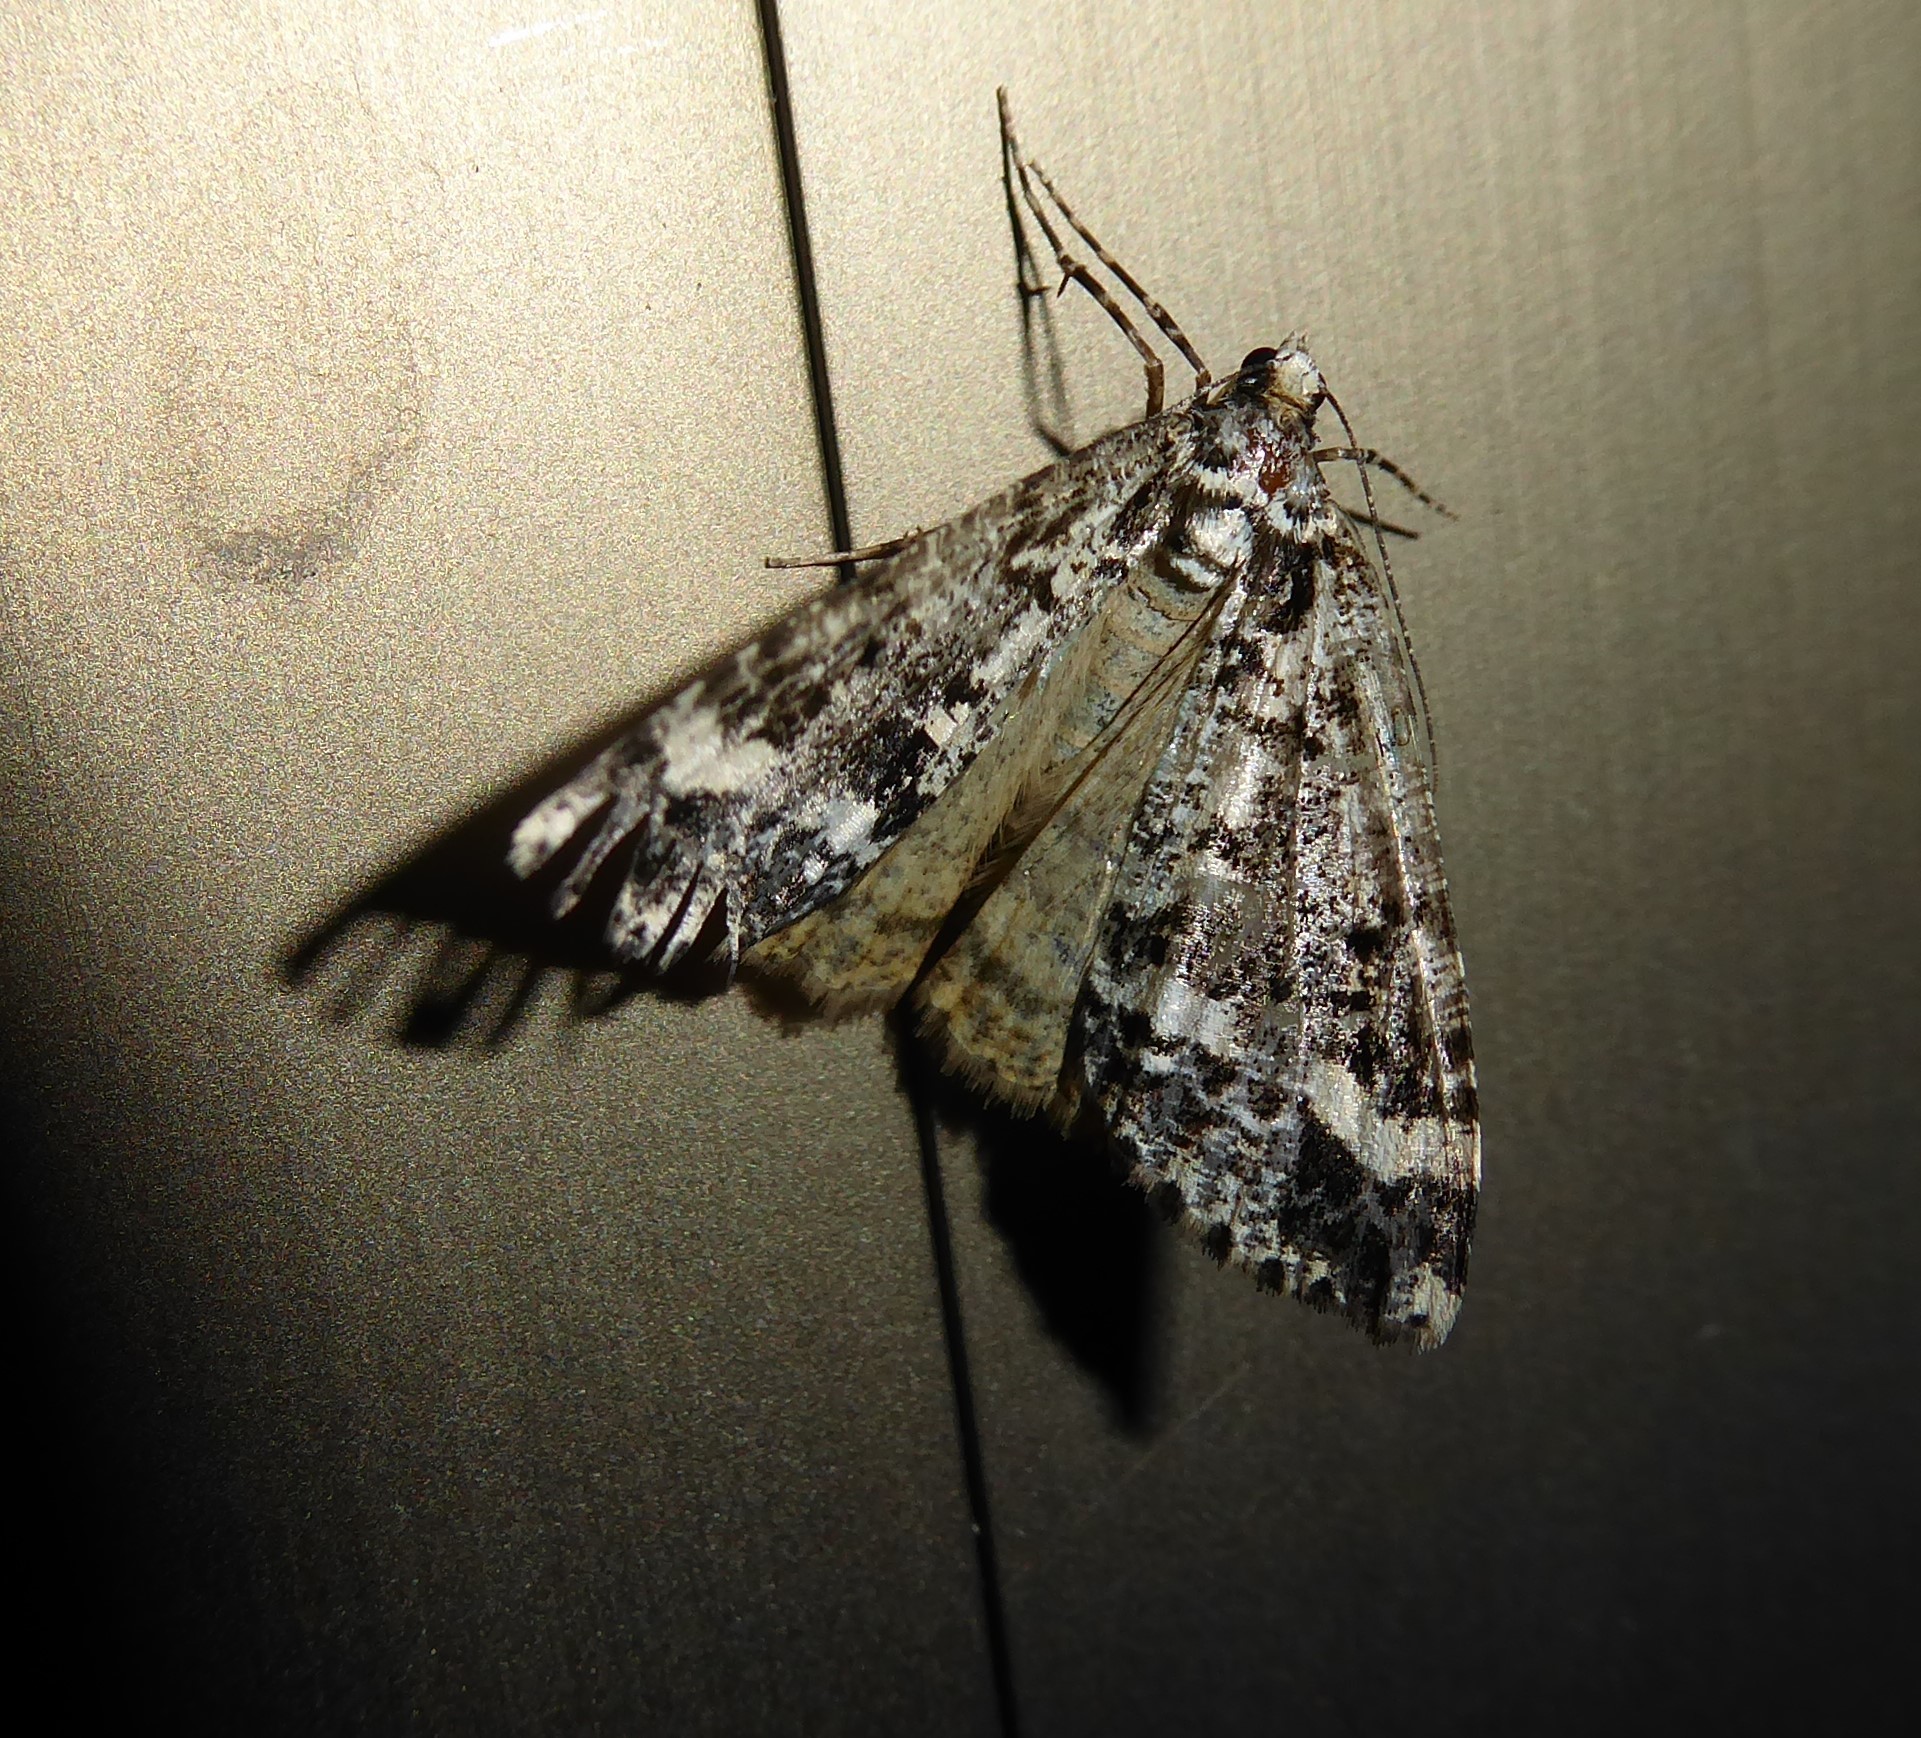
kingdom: Animalia
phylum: Arthropoda
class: Insecta
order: Lepidoptera
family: Geometridae
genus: Pseudocoremia
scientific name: Pseudocoremia leucelaea
